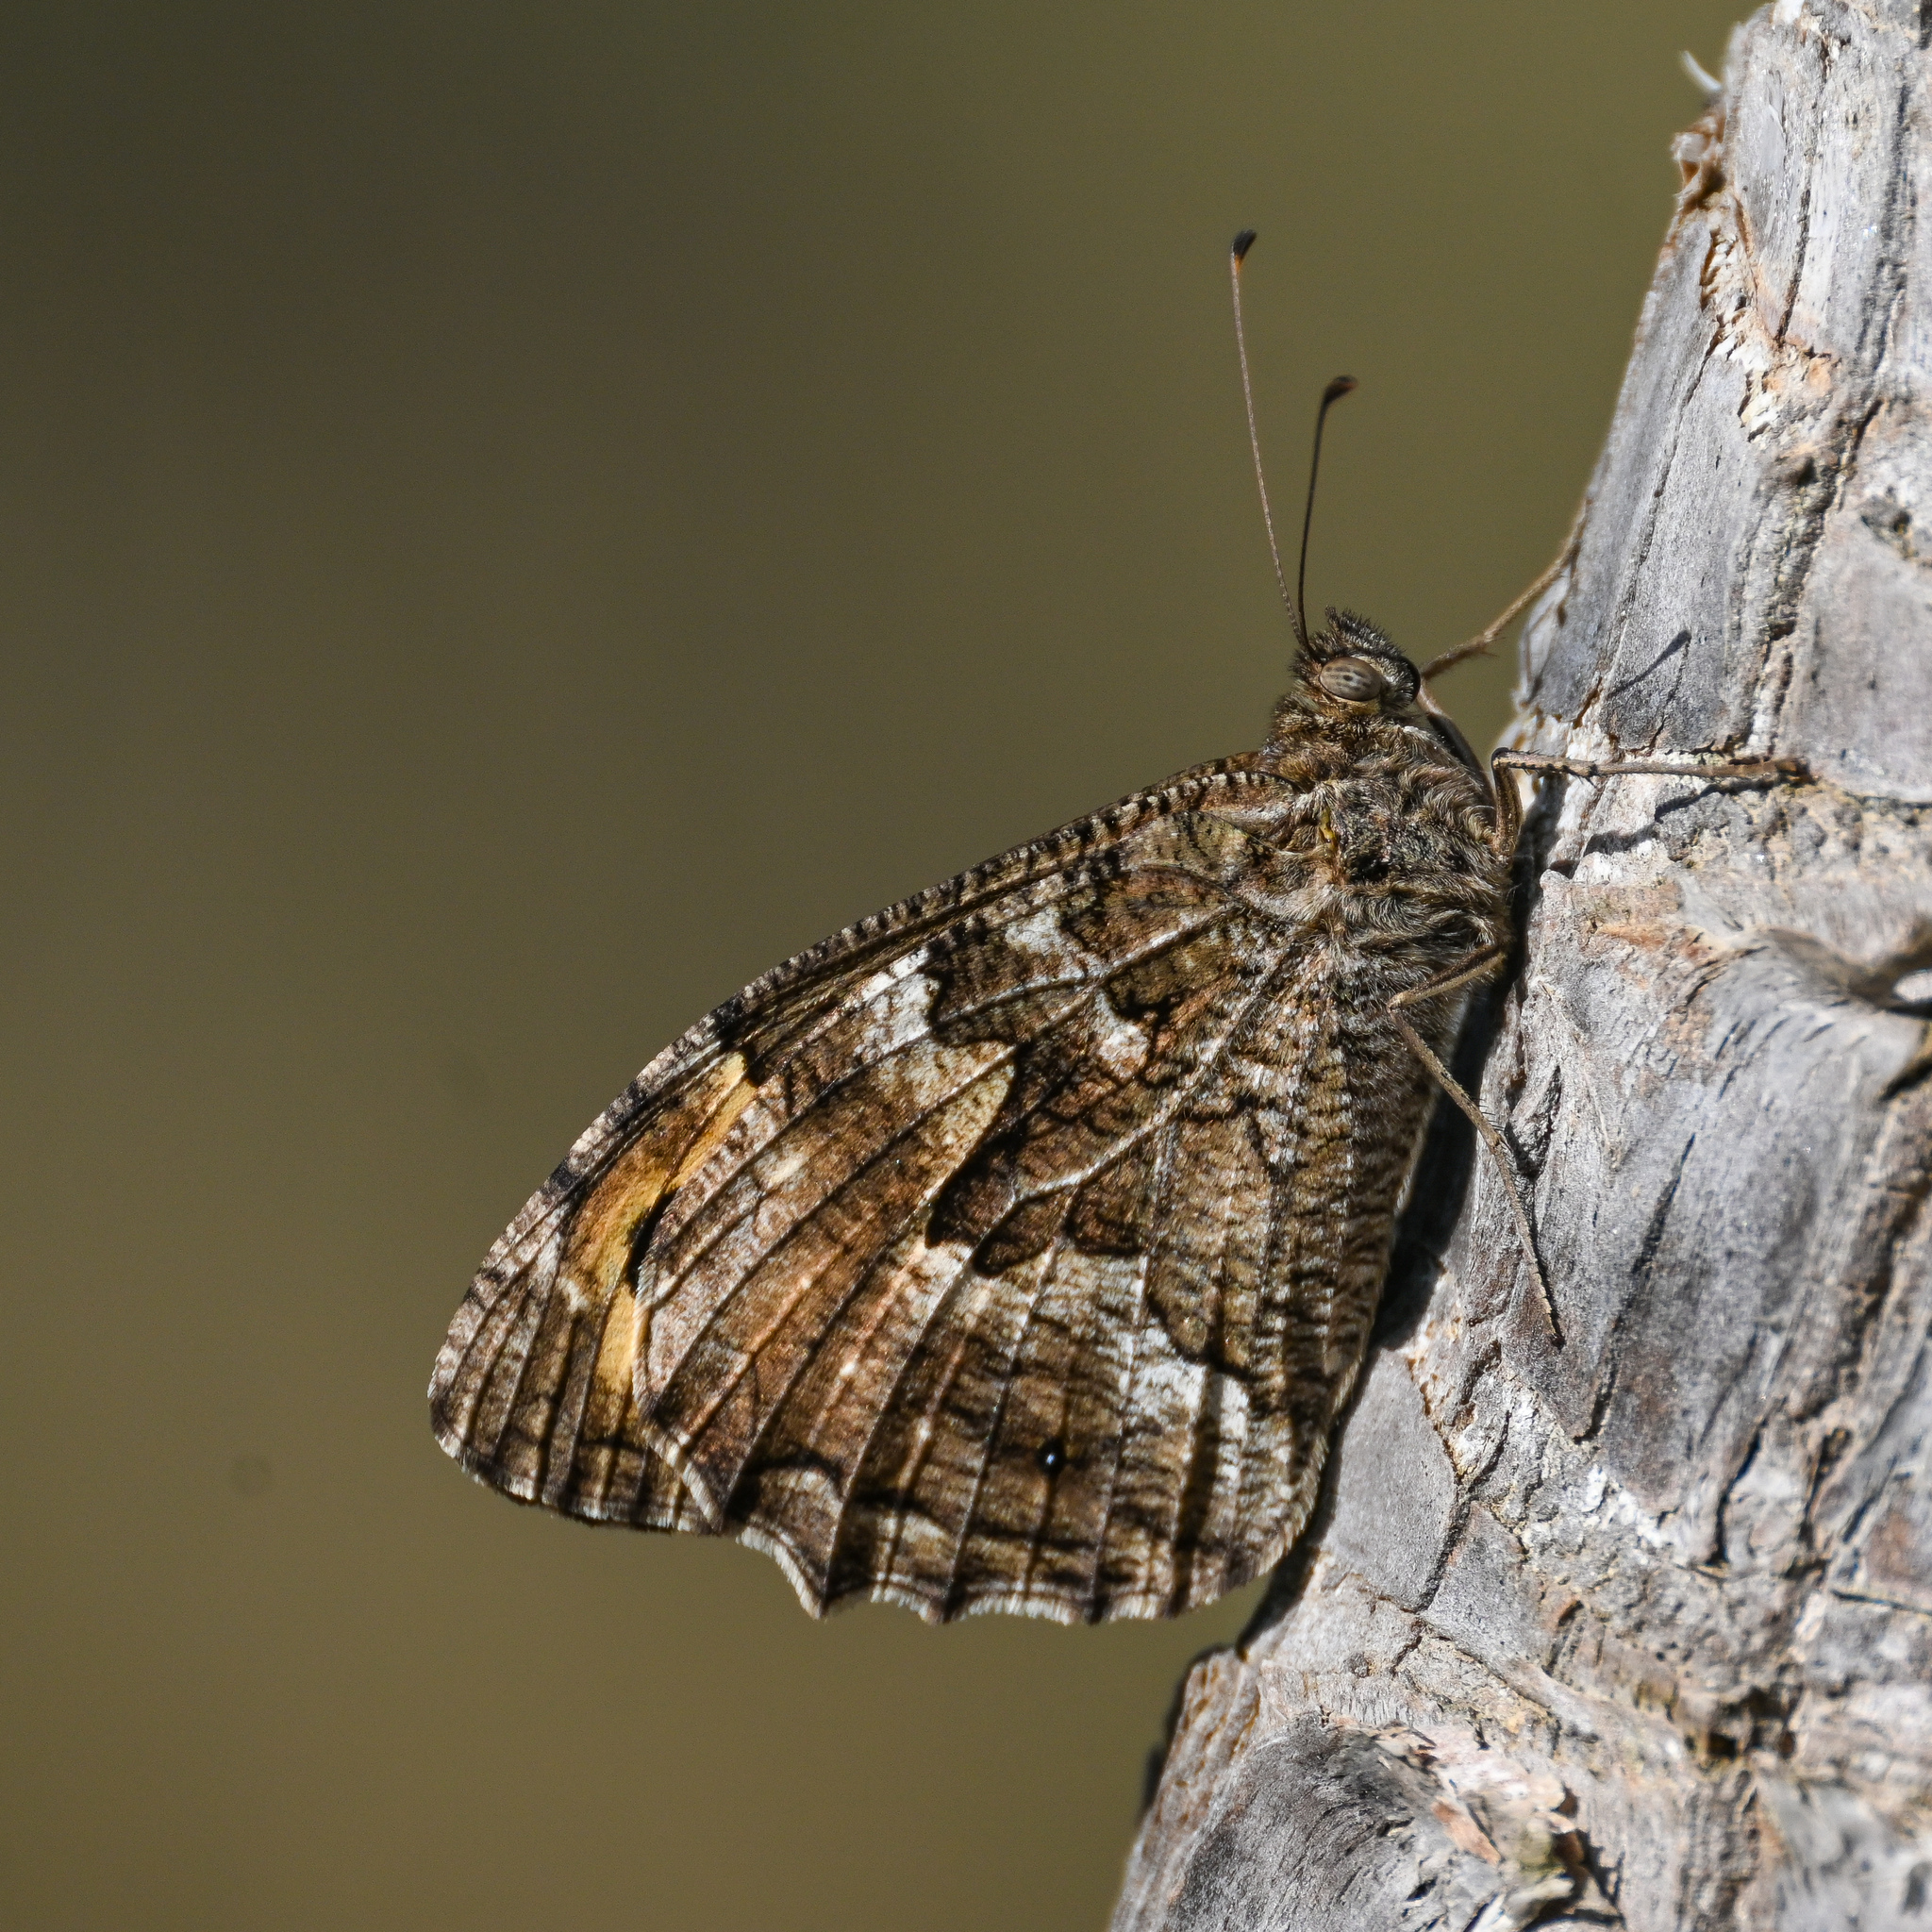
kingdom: Animalia
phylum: Arthropoda
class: Insecta
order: Lepidoptera
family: Nymphalidae
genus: Hipparchia
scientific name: Hipparchia cretica
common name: Cretan grayling
